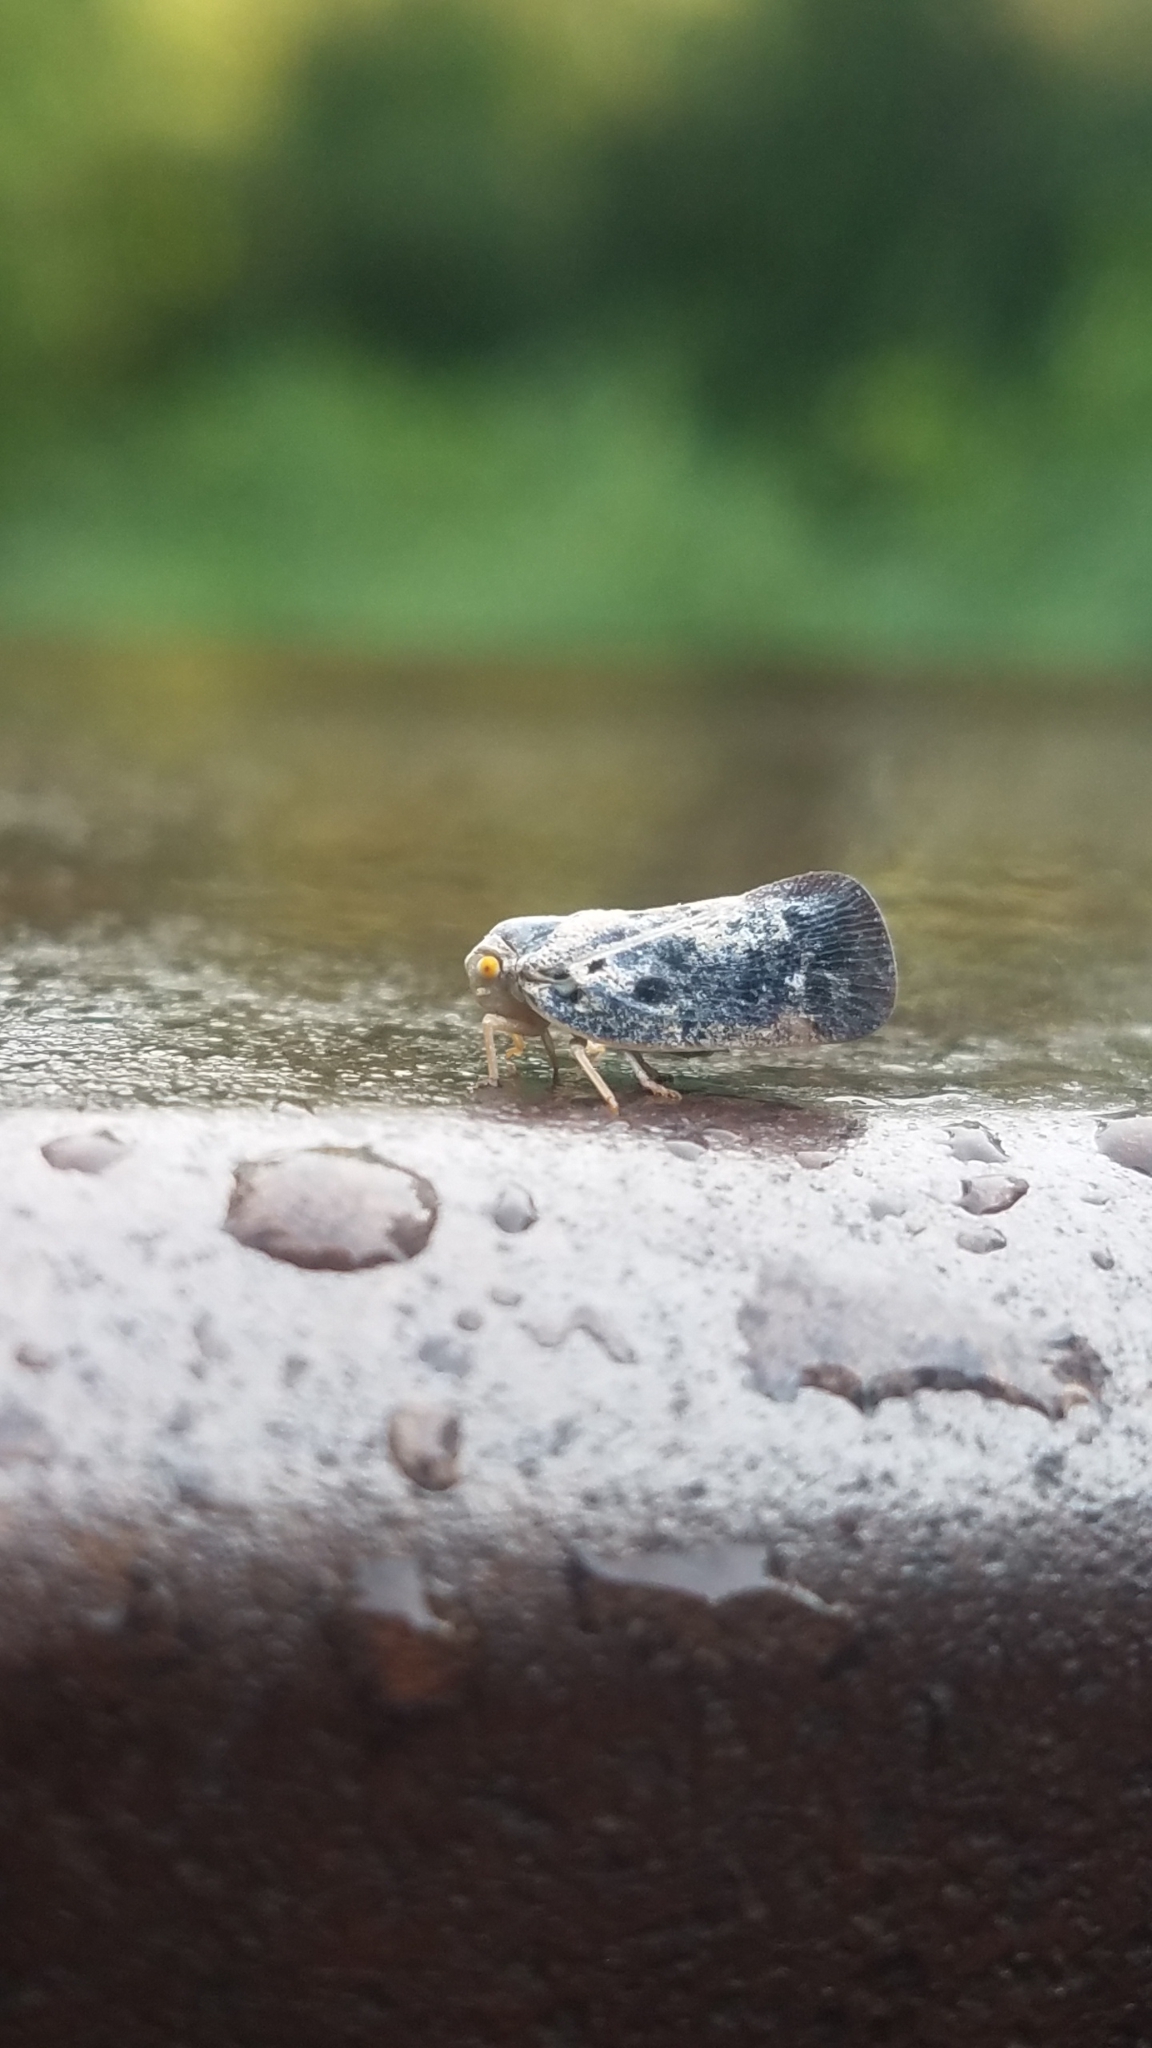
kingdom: Animalia
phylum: Arthropoda
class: Insecta
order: Hemiptera
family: Flatidae
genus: Metcalfa
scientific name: Metcalfa pruinosa
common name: Citrus flatid planthopper
